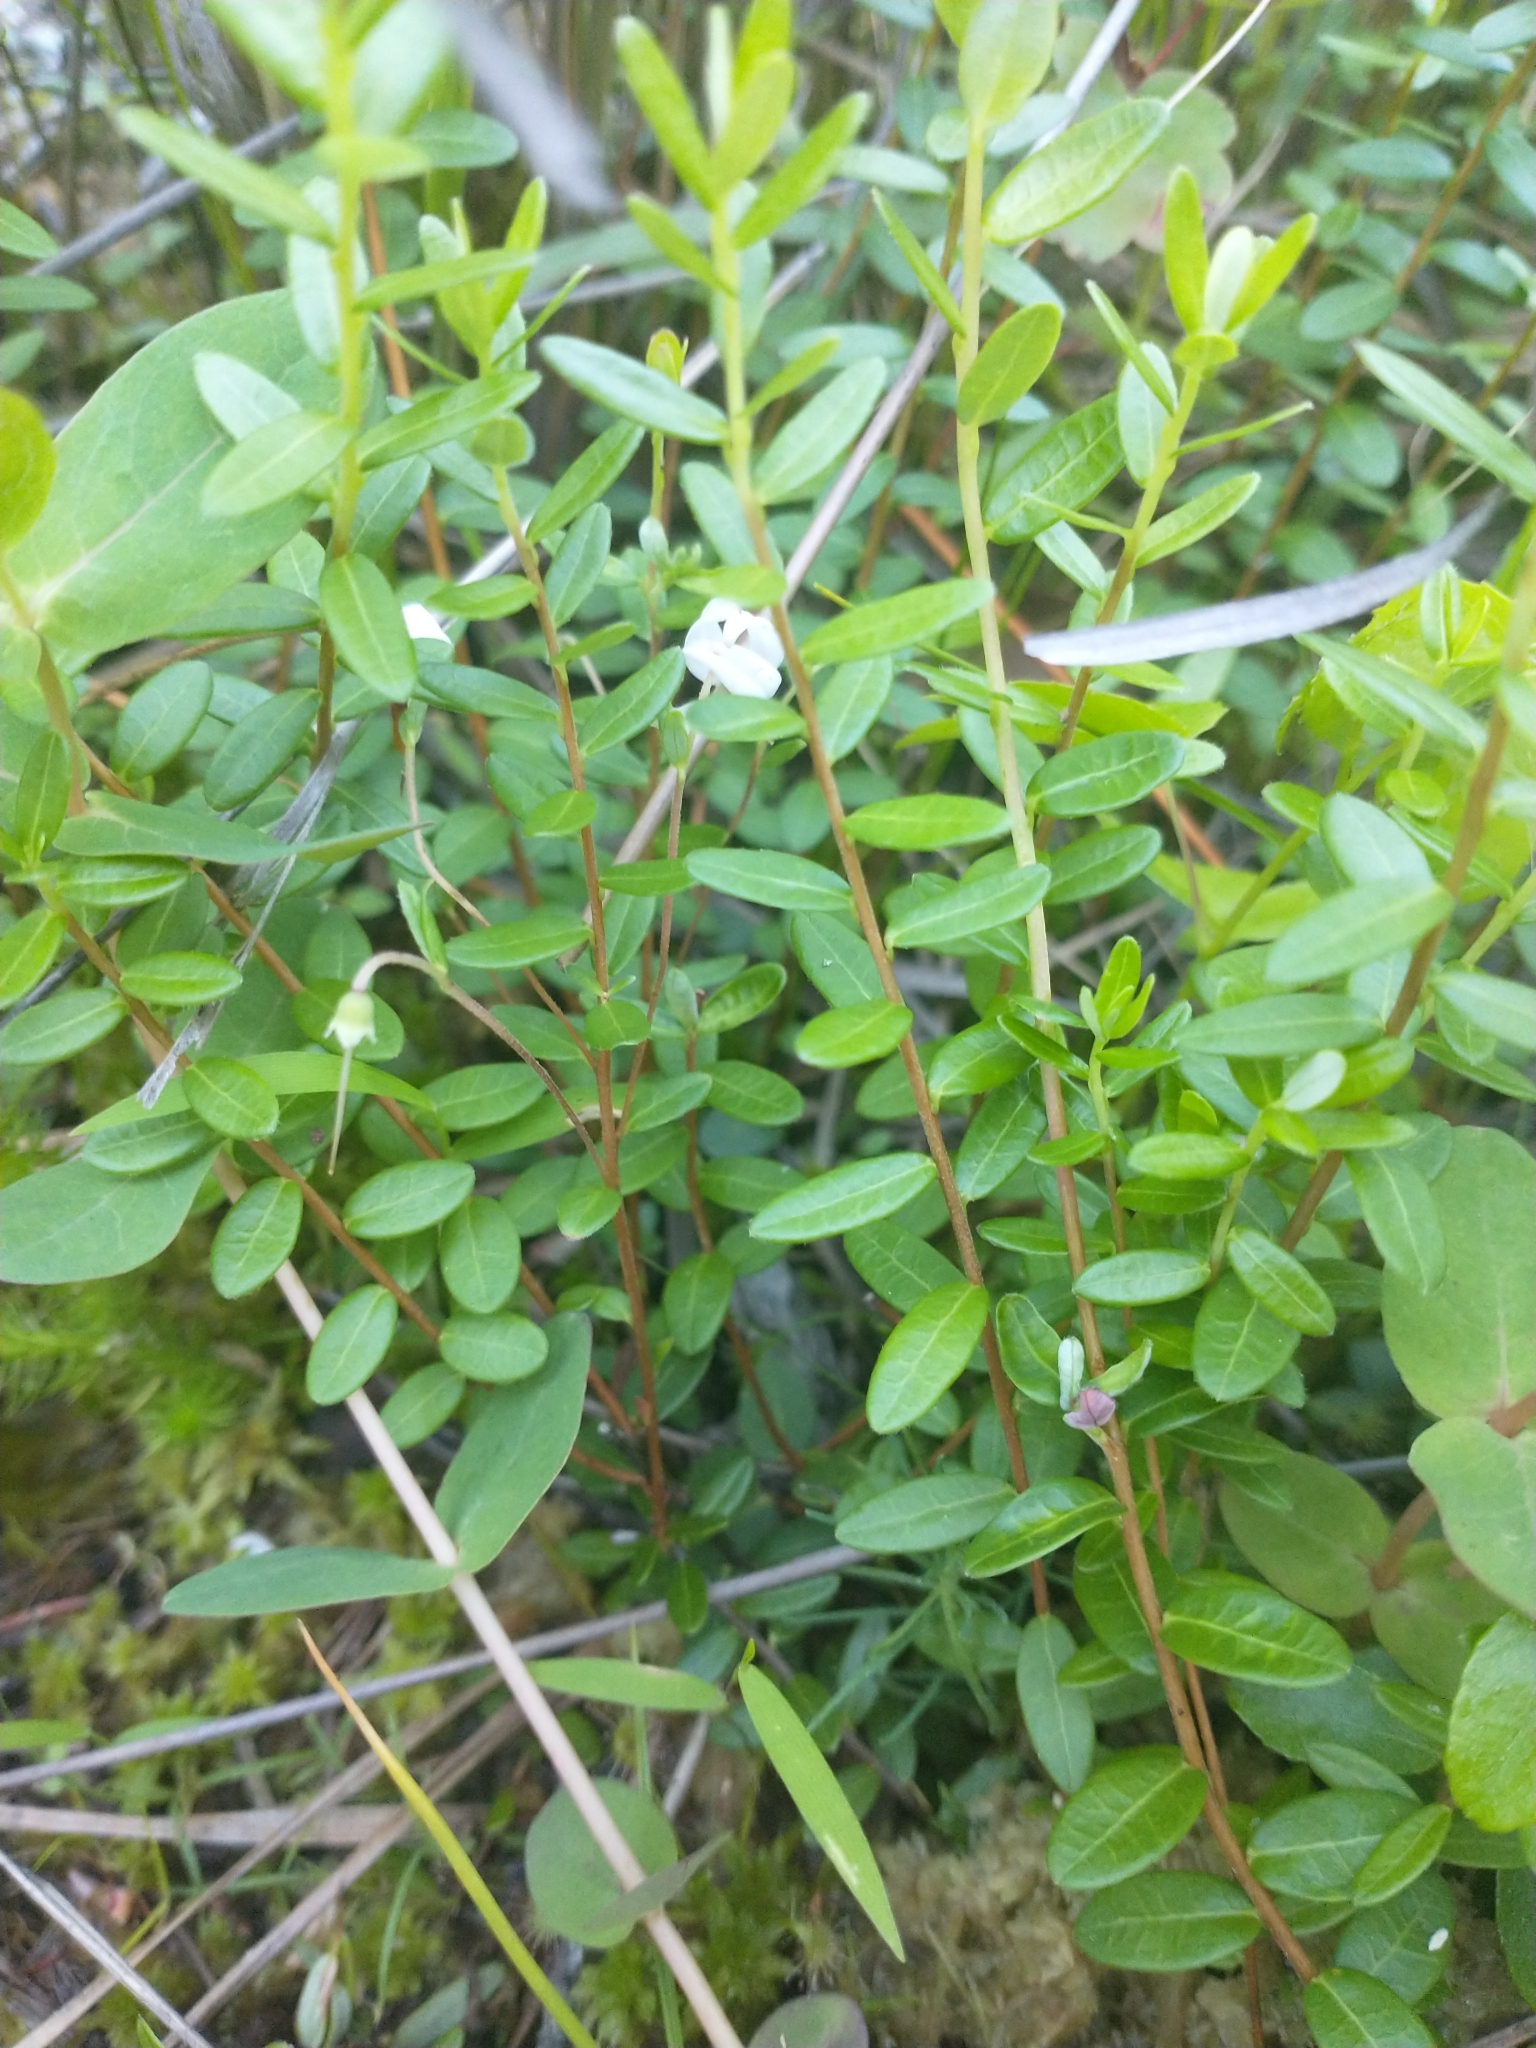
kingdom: Plantae
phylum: Tracheophyta
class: Magnoliopsida
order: Ericales
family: Ericaceae
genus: Vaccinium
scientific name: Vaccinium macrocarpon
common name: American cranberry
